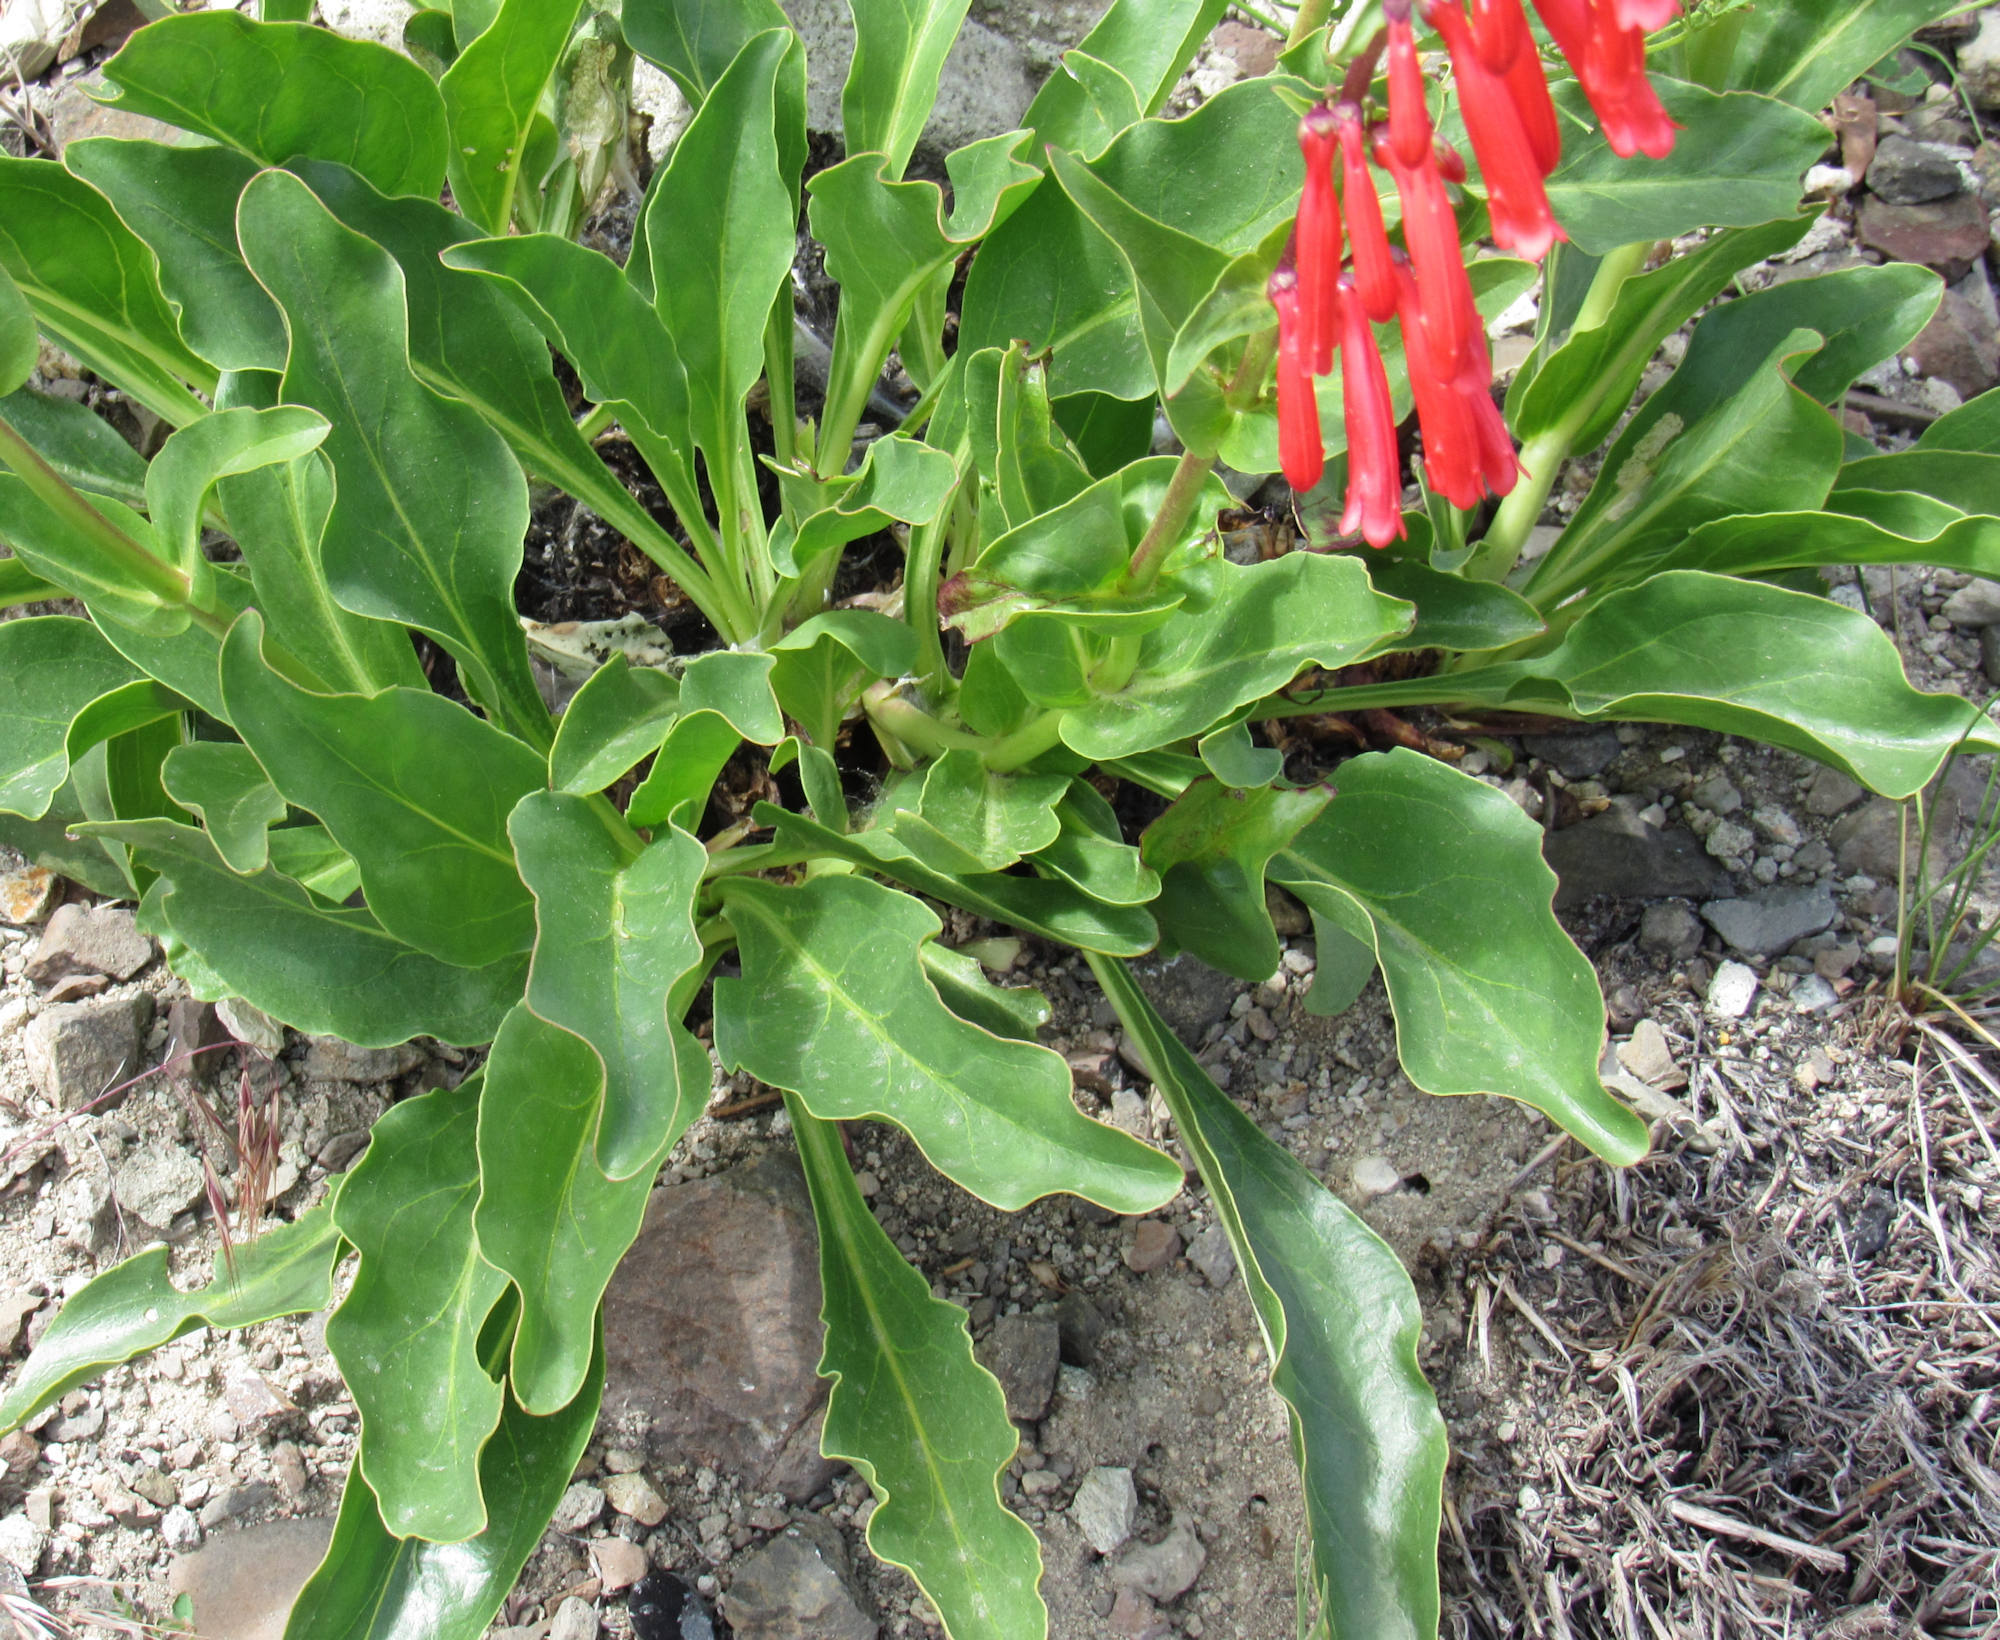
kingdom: Plantae
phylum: Tracheophyta
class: Magnoliopsida
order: Lamiales
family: Plantaginaceae
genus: Penstemon
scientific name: Penstemon eatonii
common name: Eaton's penstemon
